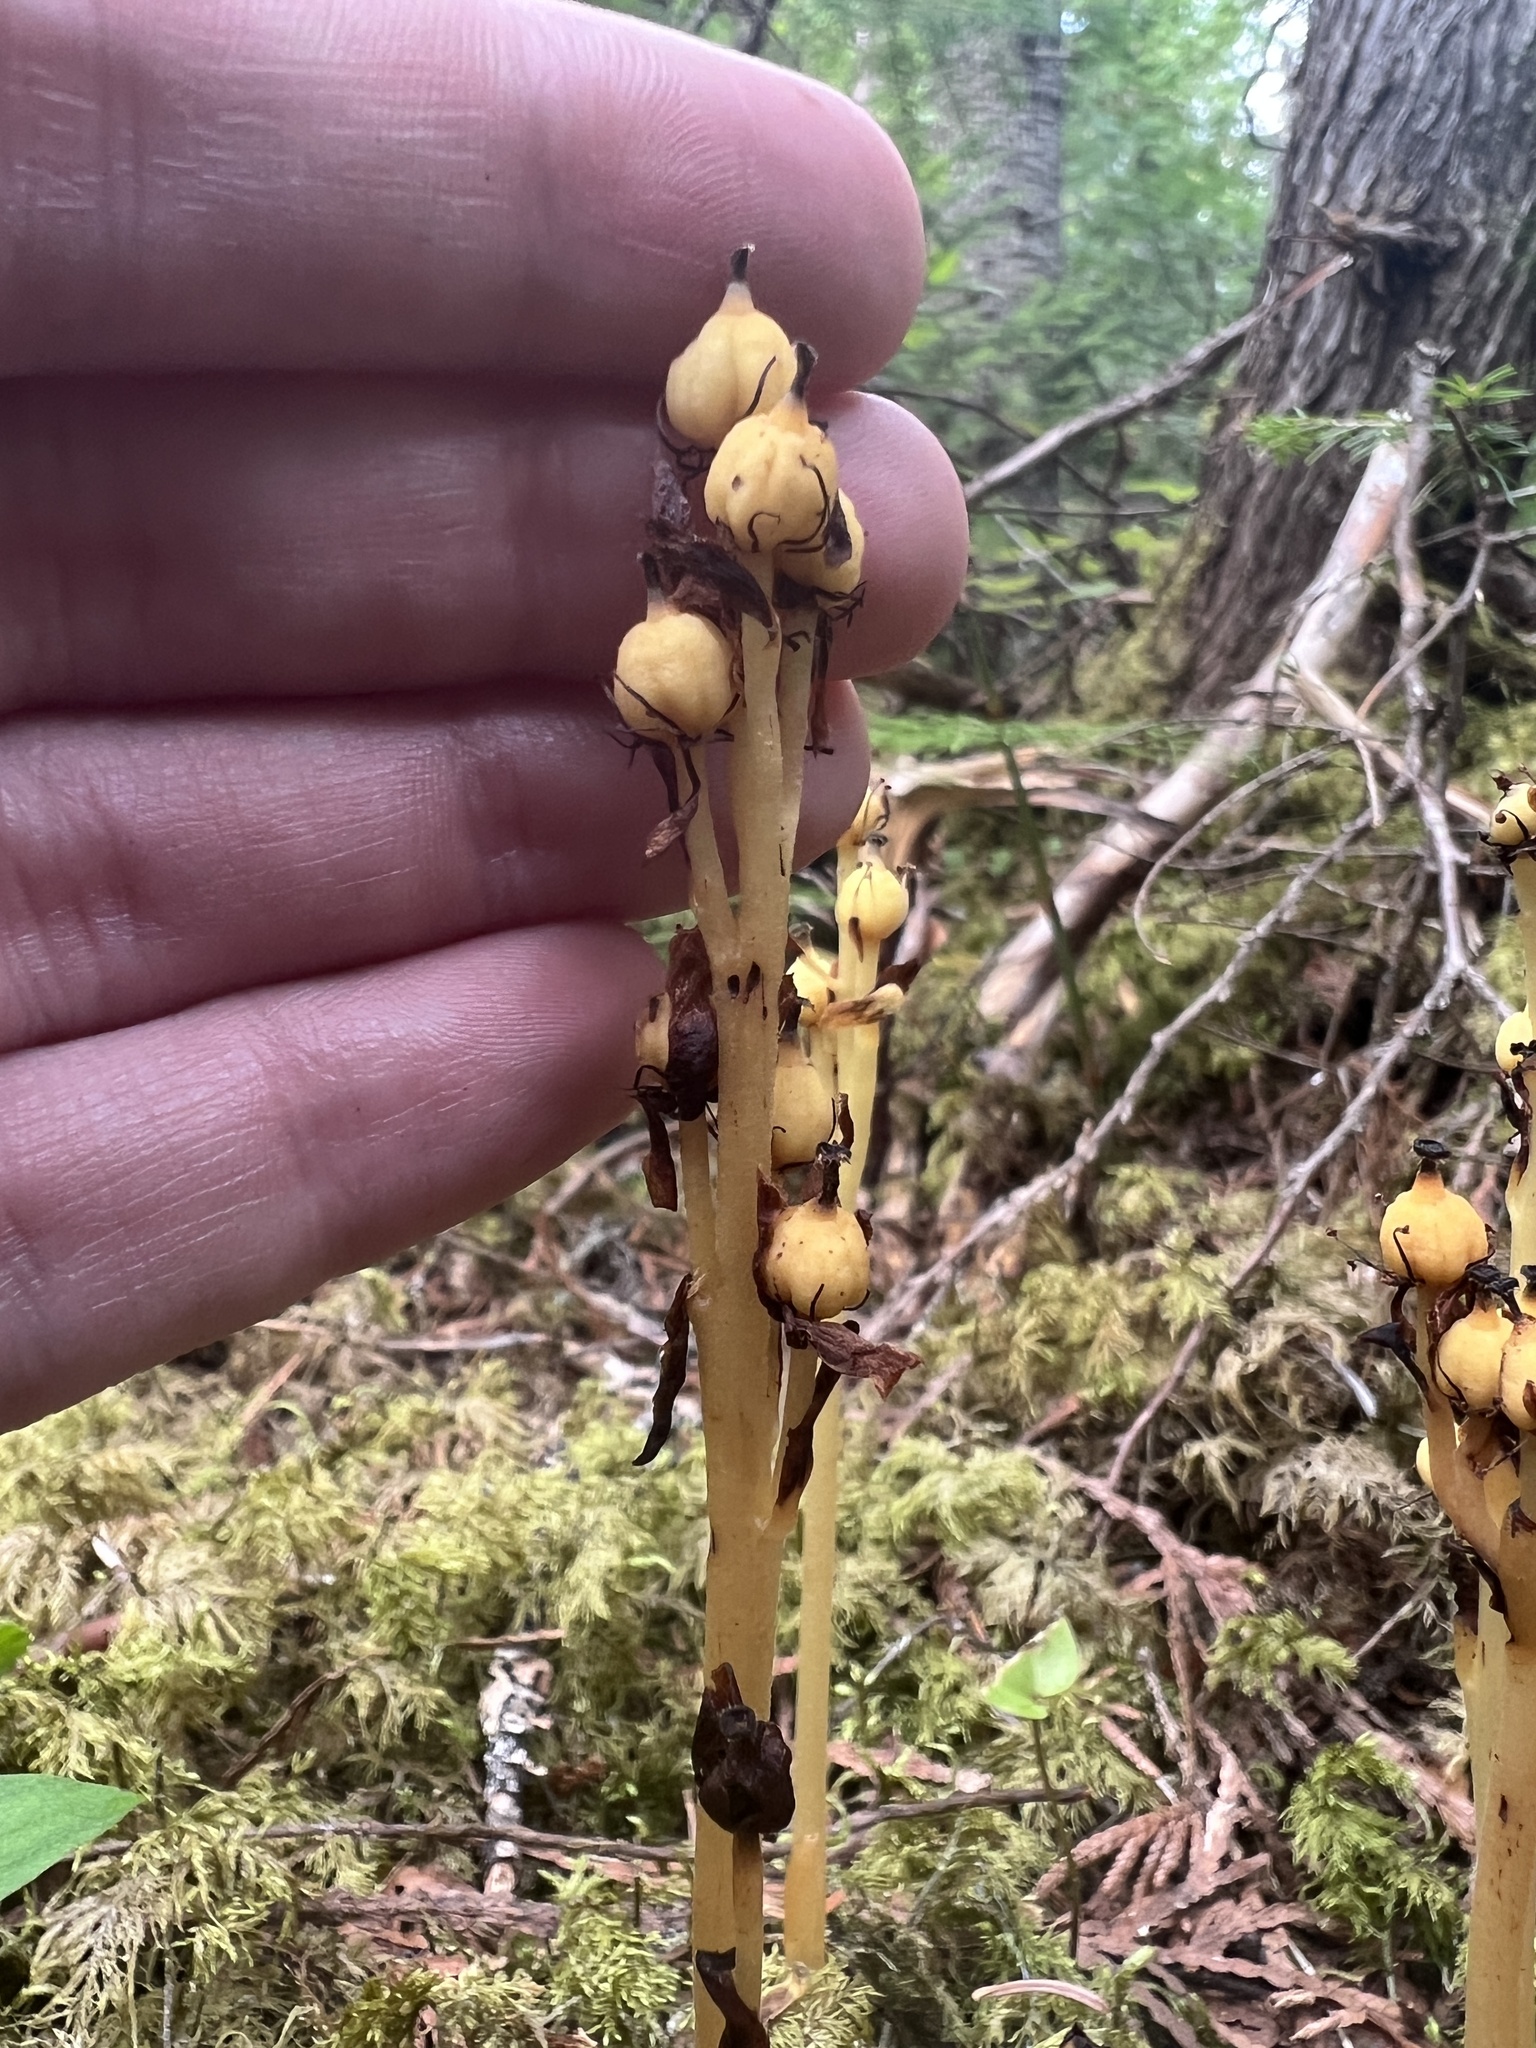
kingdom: Plantae
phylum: Tracheophyta
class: Magnoliopsida
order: Ericales
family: Ericaceae
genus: Hypopitys
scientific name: Hypopitys monotropa
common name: Yellow bird's-nest
